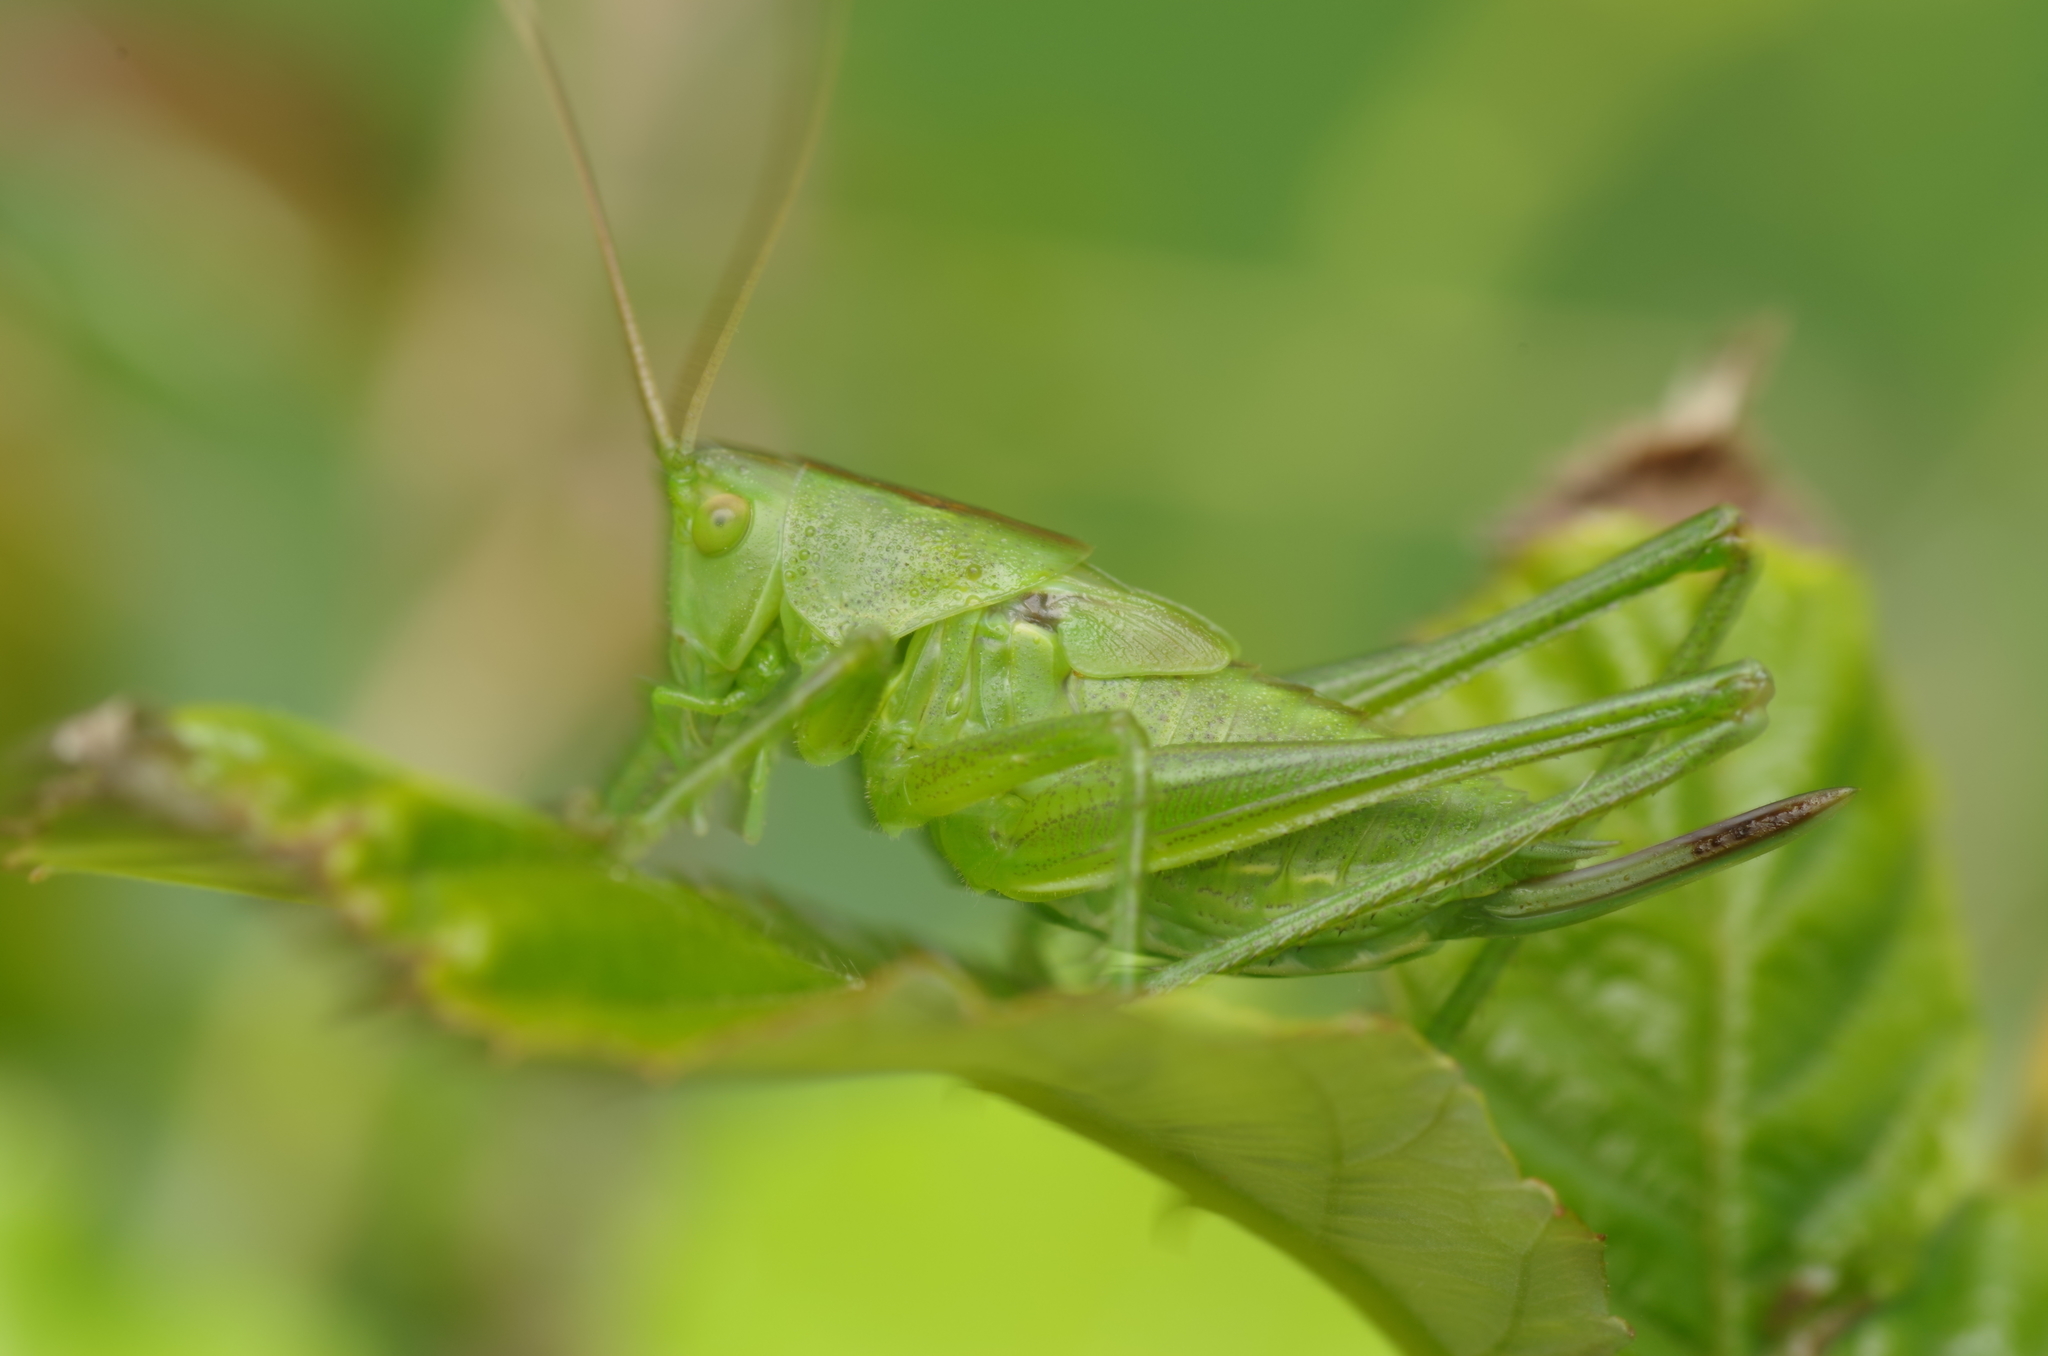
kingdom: Animalia
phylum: Arthropoda
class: Insecta
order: Orthoptera
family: Tettigoniidae
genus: Tettigonia
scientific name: Tettigonia viridissima
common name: Great green bush-cricket
